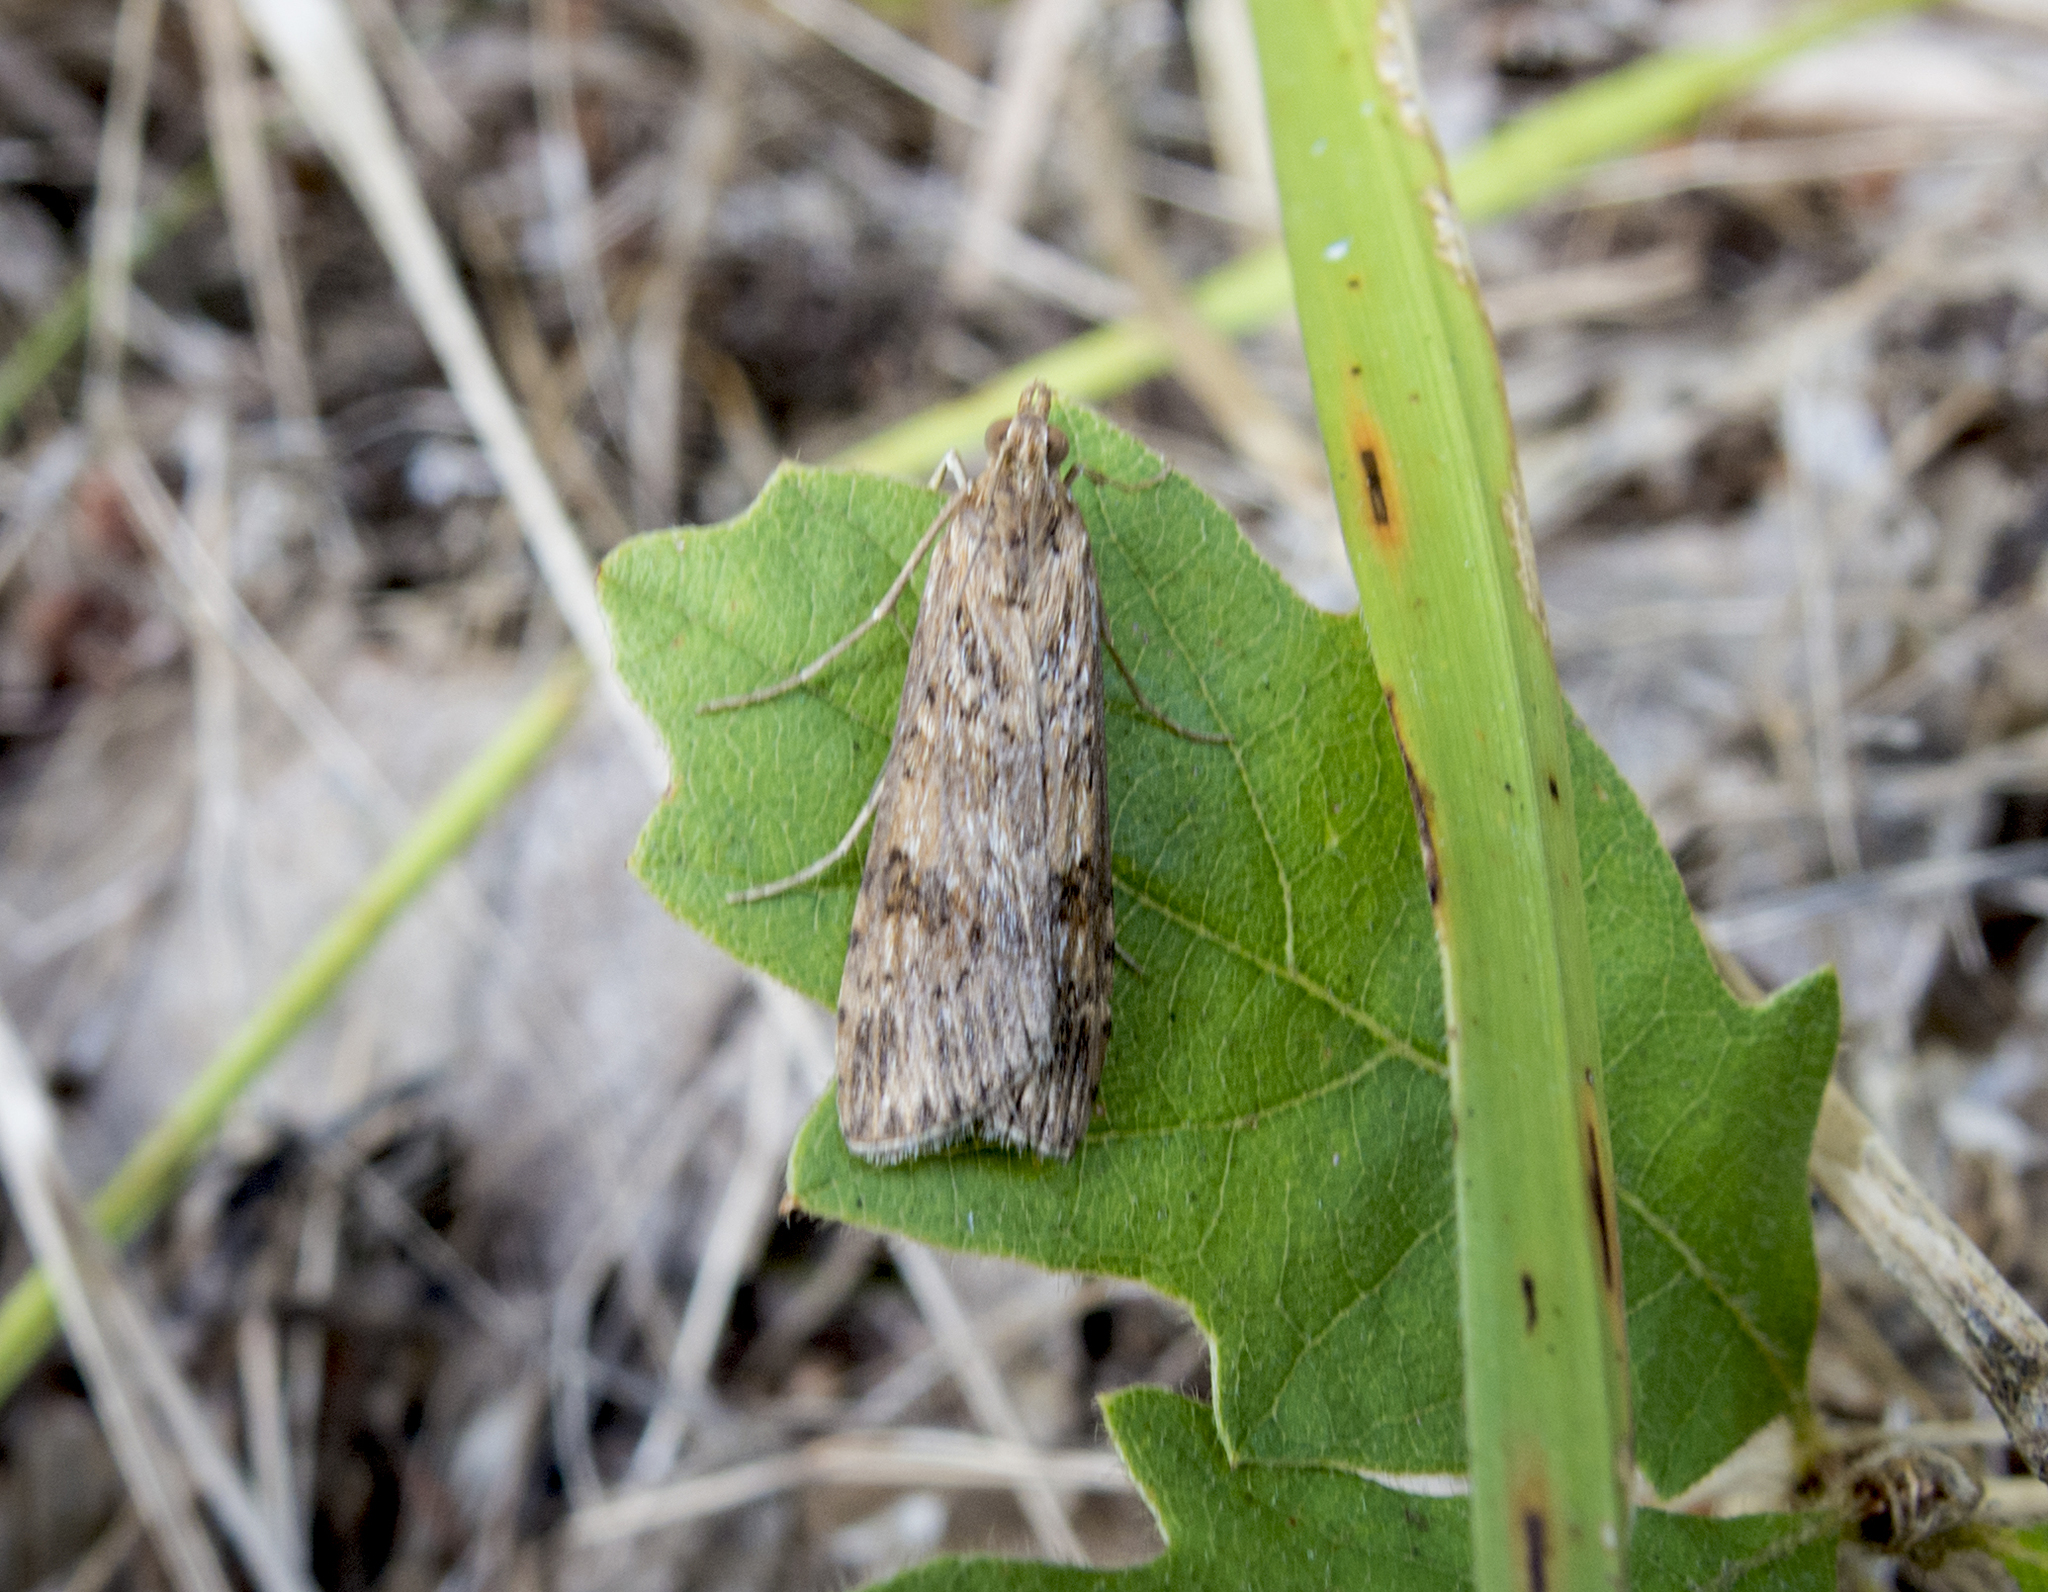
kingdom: Animalia
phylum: Arthropoda
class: Insecta
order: Lepidoptera
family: Crambidae
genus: Nomophila
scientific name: Nomophila noctuella
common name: Rush veneer
